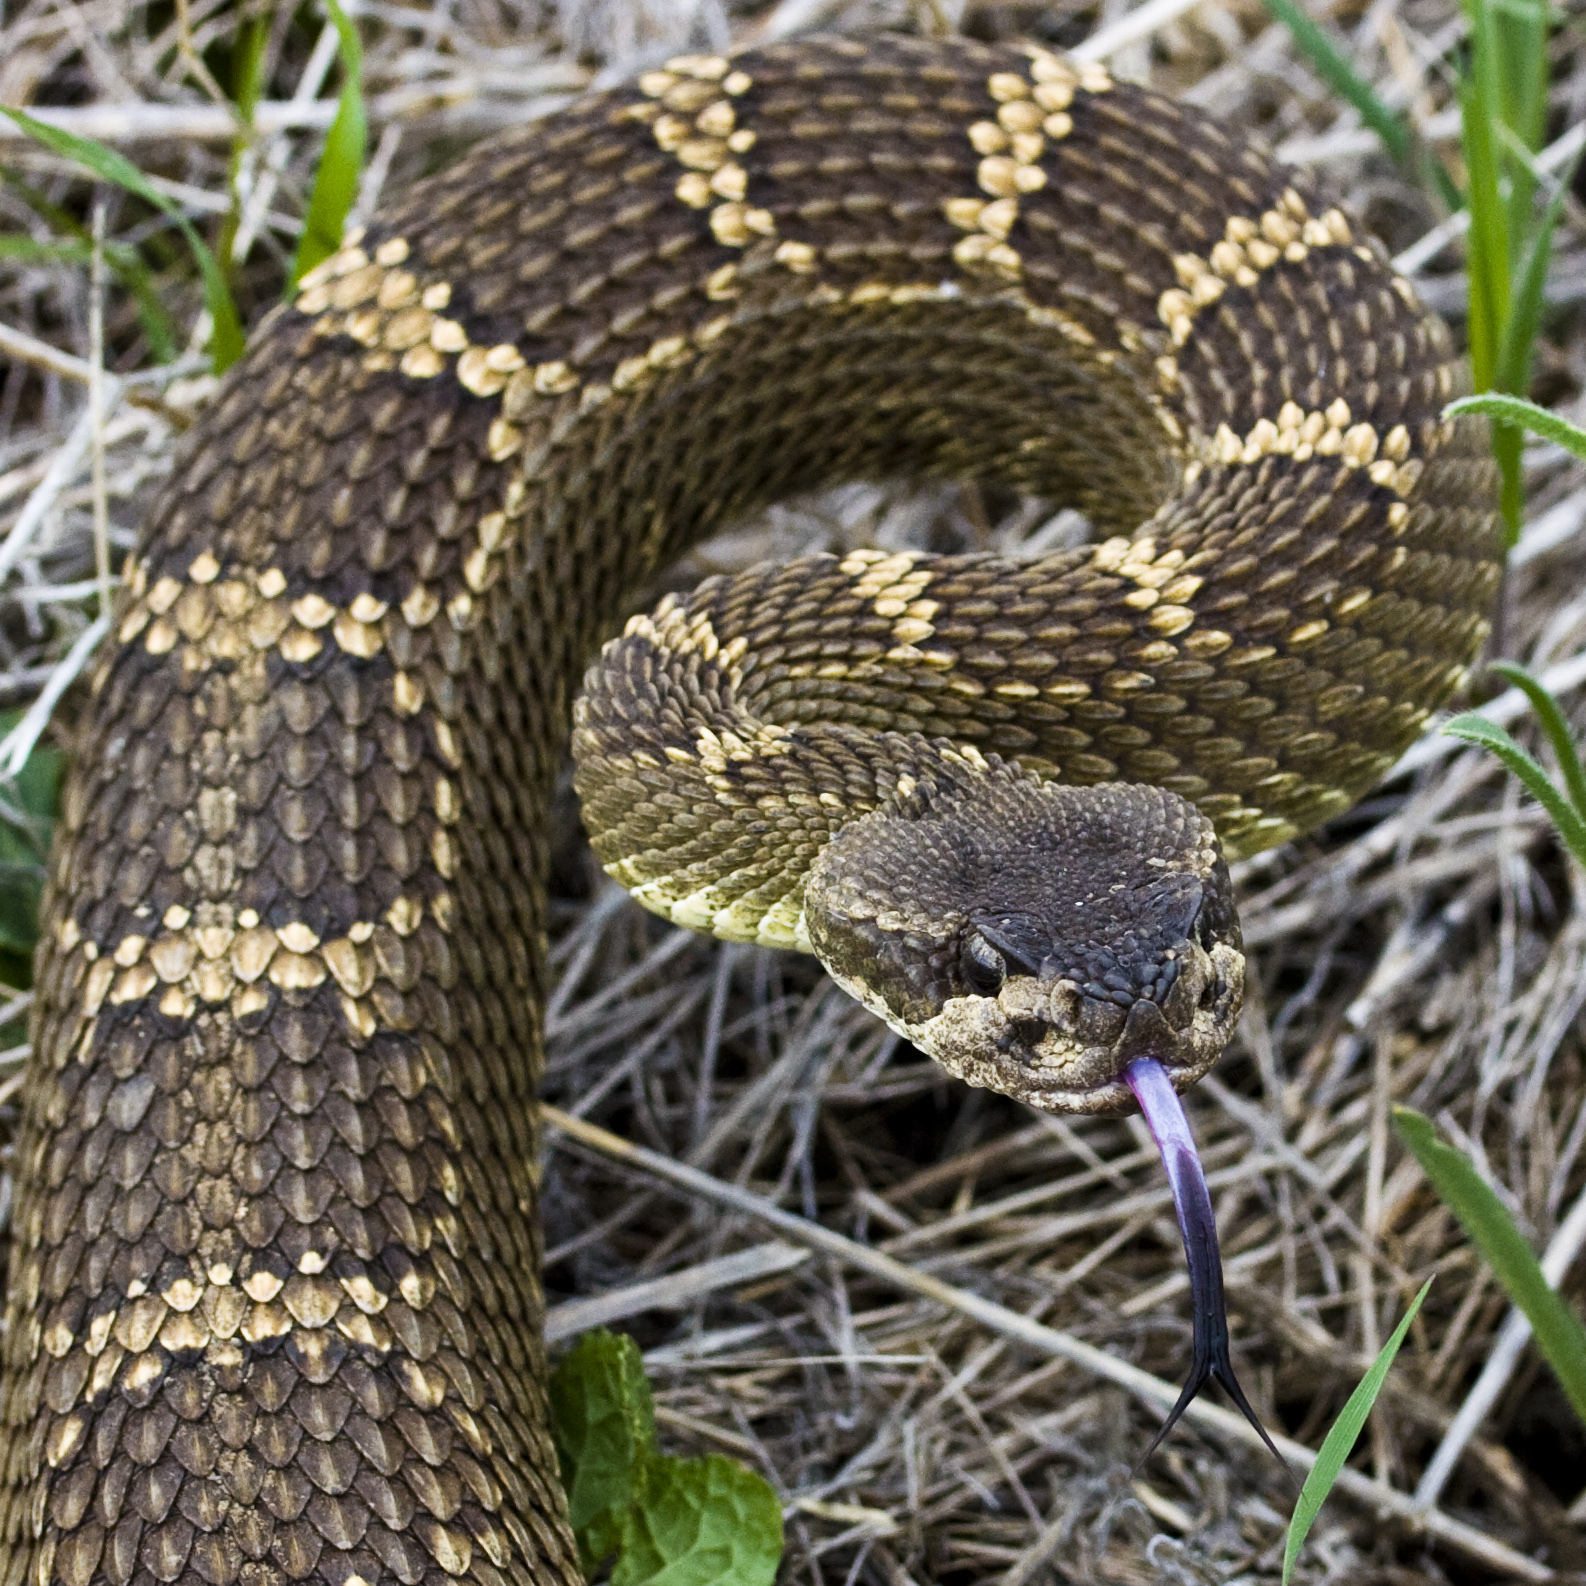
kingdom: Animalia
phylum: Chordata
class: Squamata
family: Viperidae
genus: Crotalus
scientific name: Crotalus oreganus
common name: Abyssus
